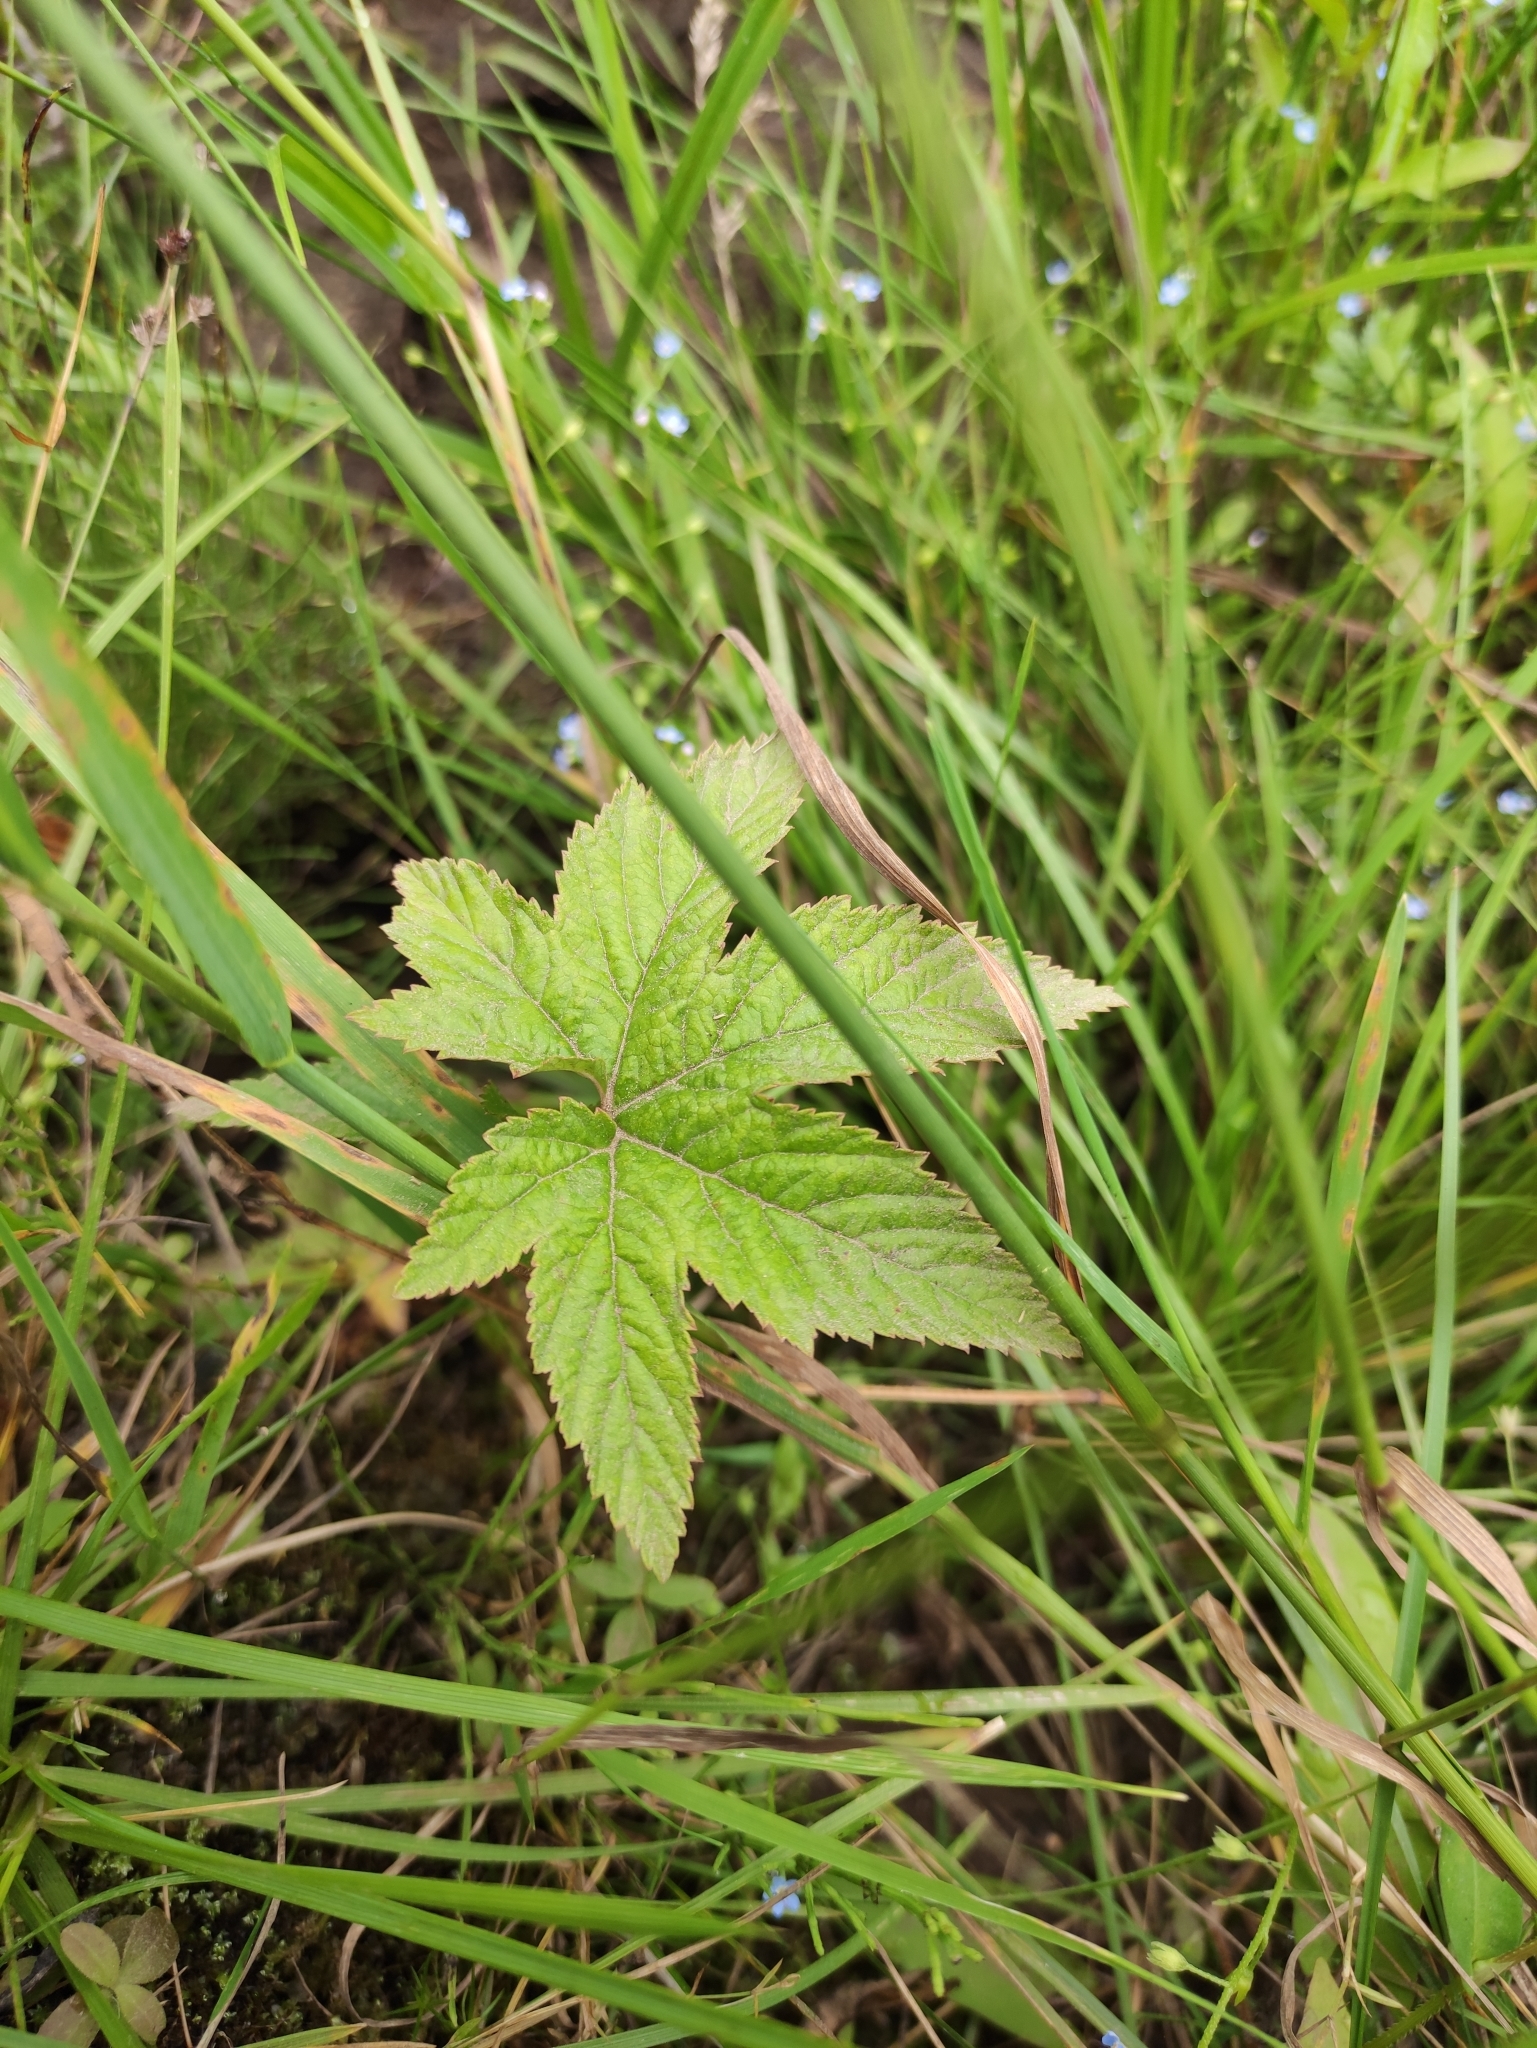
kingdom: Plantae
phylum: Tracheophyta
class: Magnoliopsida
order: Rosales
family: Rosaceae
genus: Filipendula
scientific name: Filipendula digitata
